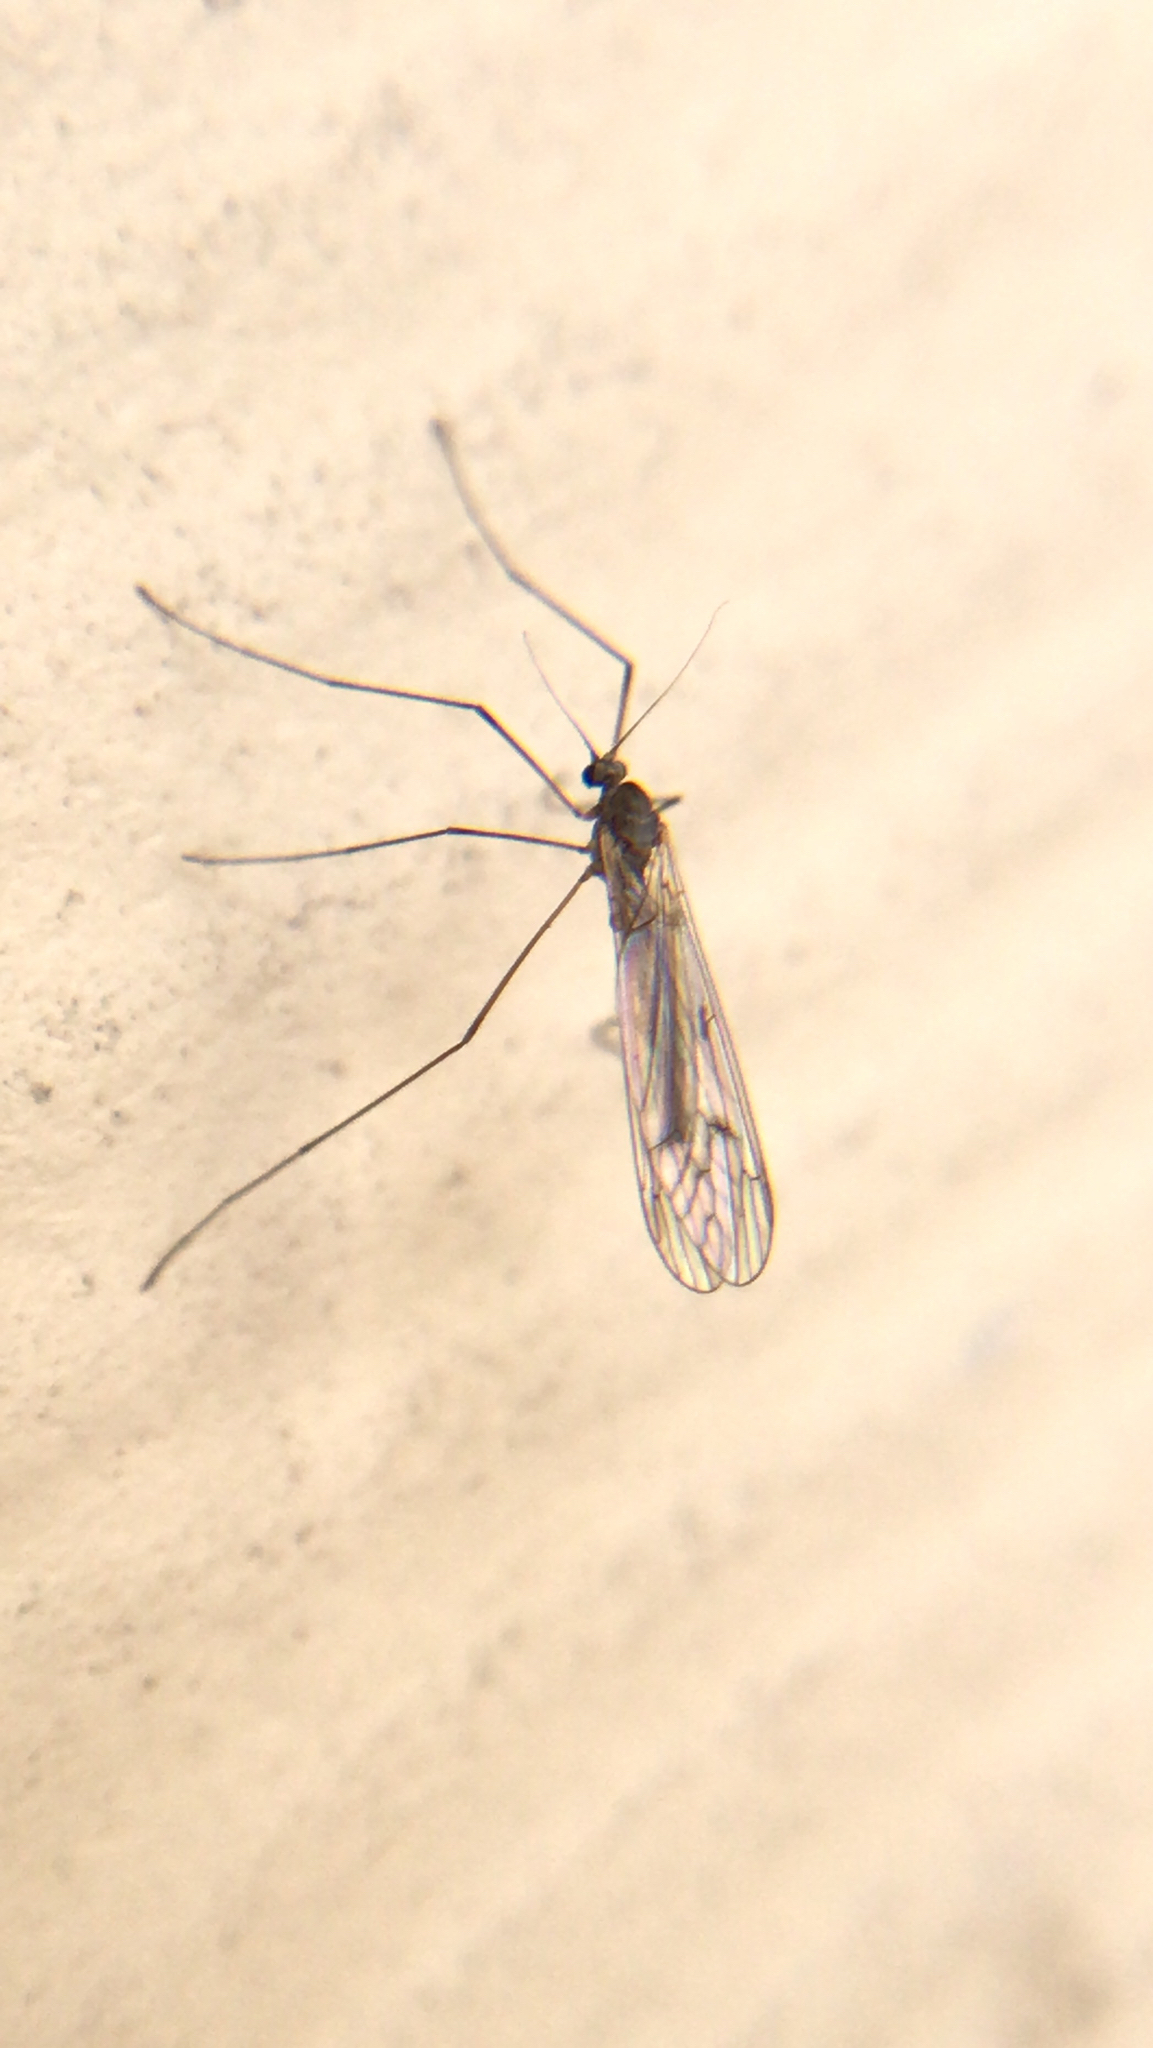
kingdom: Animalia
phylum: Arthropoda
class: Insecta
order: Diptera
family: Trichoceridae
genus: Trichocera
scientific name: Trichocera bimacula
